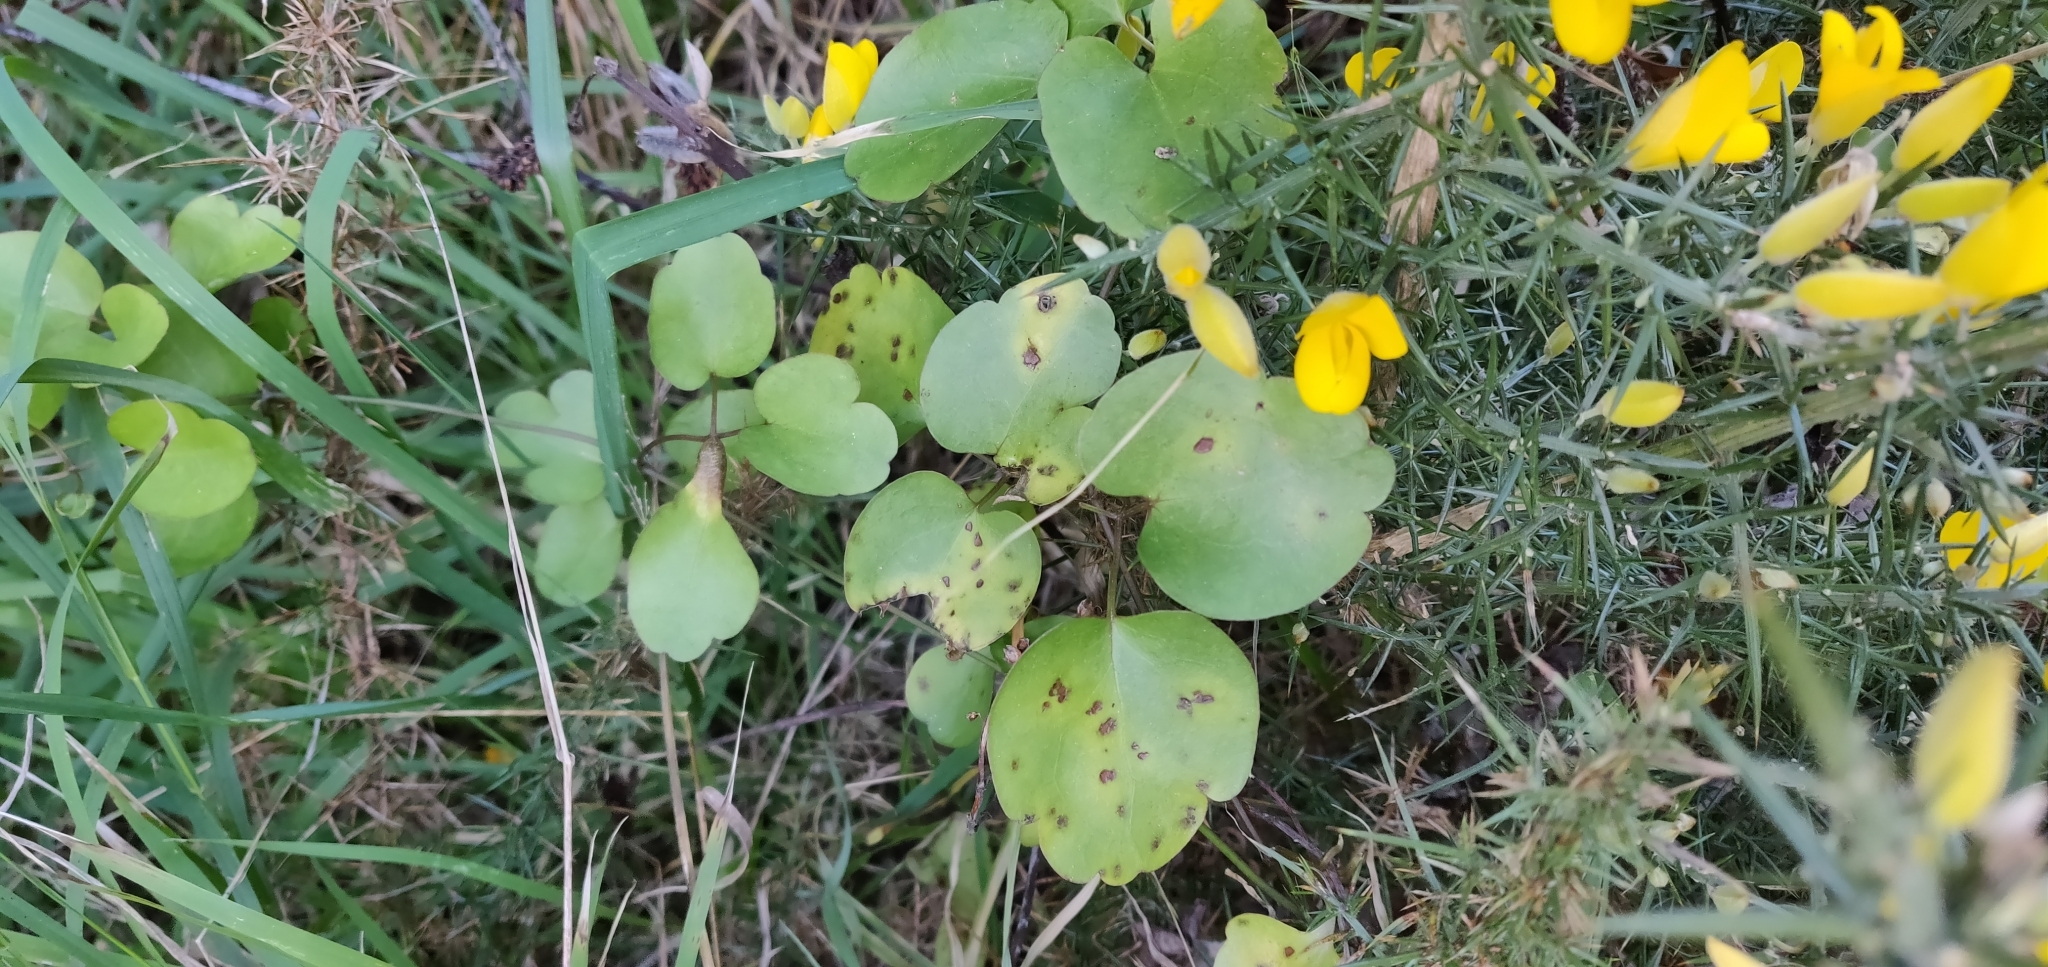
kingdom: Plantae
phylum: Tracheophyta
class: Magnoliopsida
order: Ranunculales
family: Ranunculaceae
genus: Clematis
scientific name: Clematis paniculata
